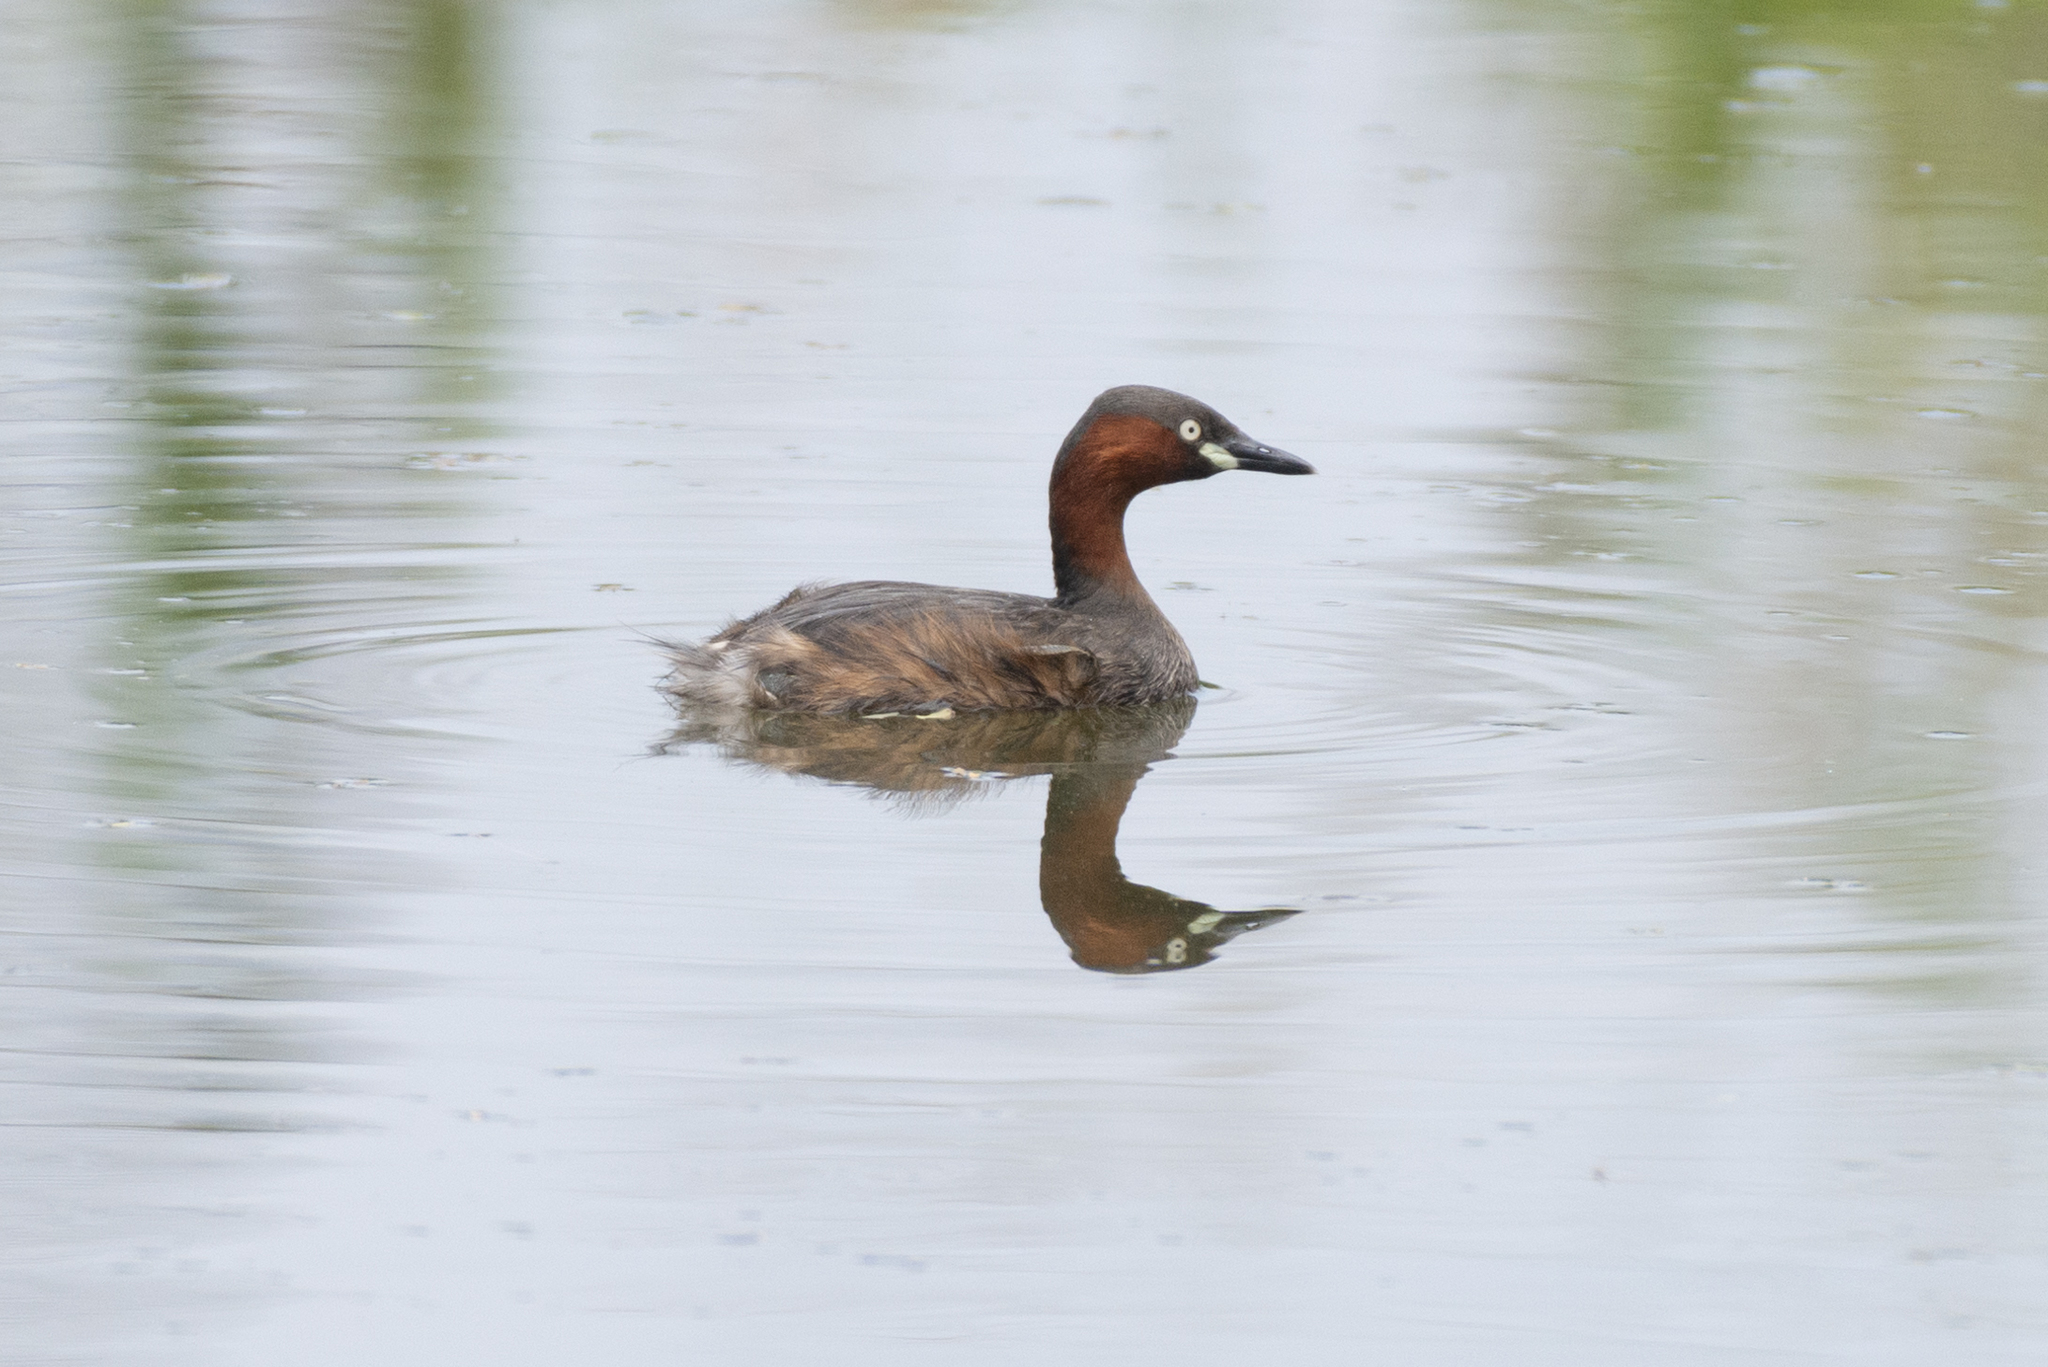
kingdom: Animalia
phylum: Chordata
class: Aves
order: Podicipediformes
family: Podicipedidae
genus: Tachybaptus
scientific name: Tachybaptus ruficollis
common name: Little grebe
